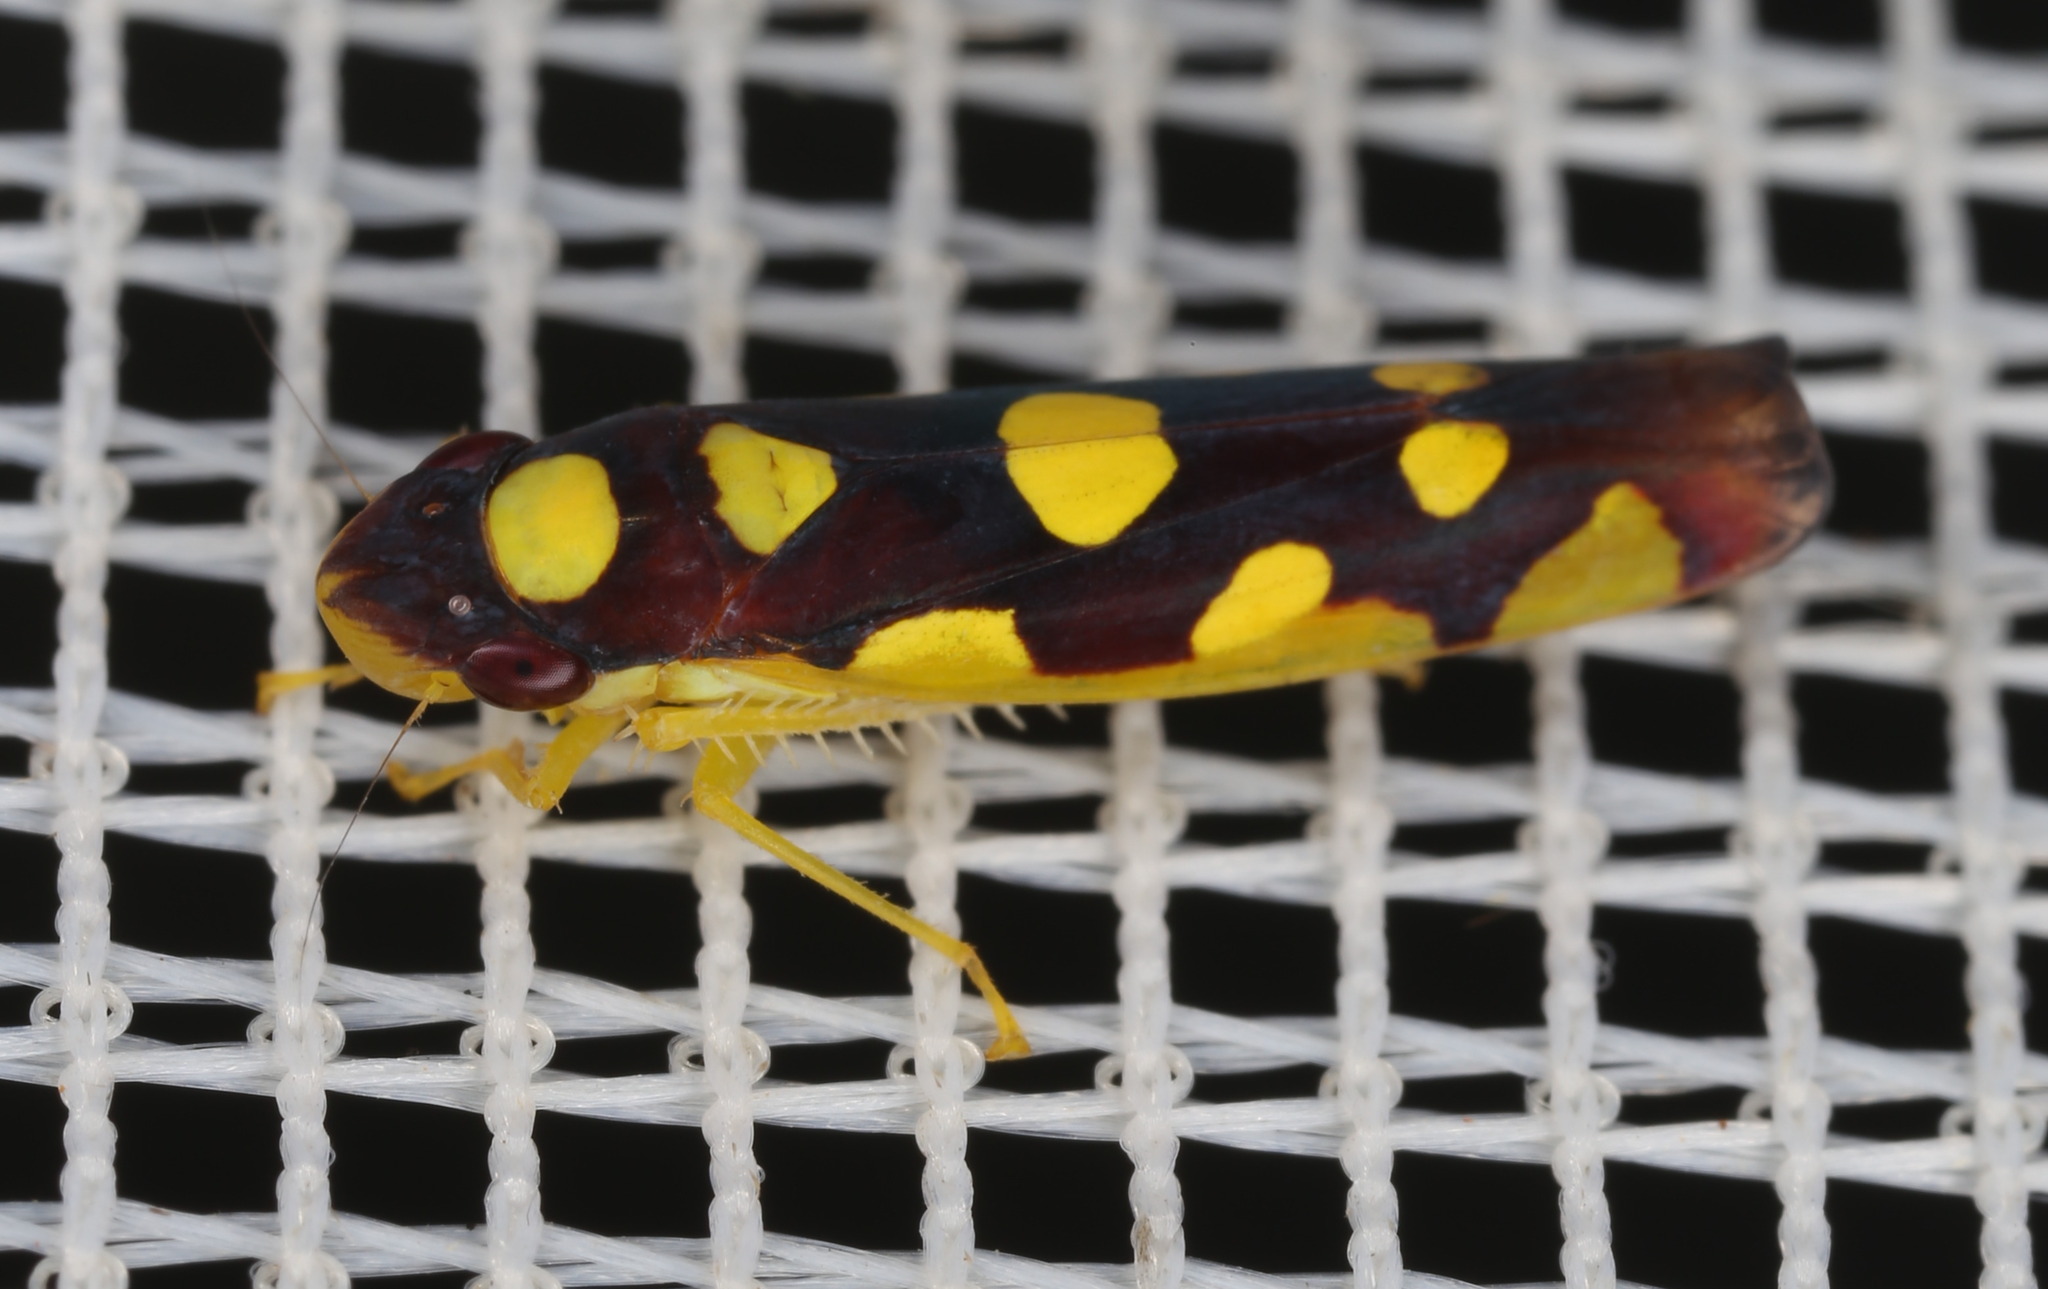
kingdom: Animalia
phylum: Arthropoda
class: Insecta
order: Hemiptera
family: Cicadellidae
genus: Baleja
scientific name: Baleja flavoguttata
